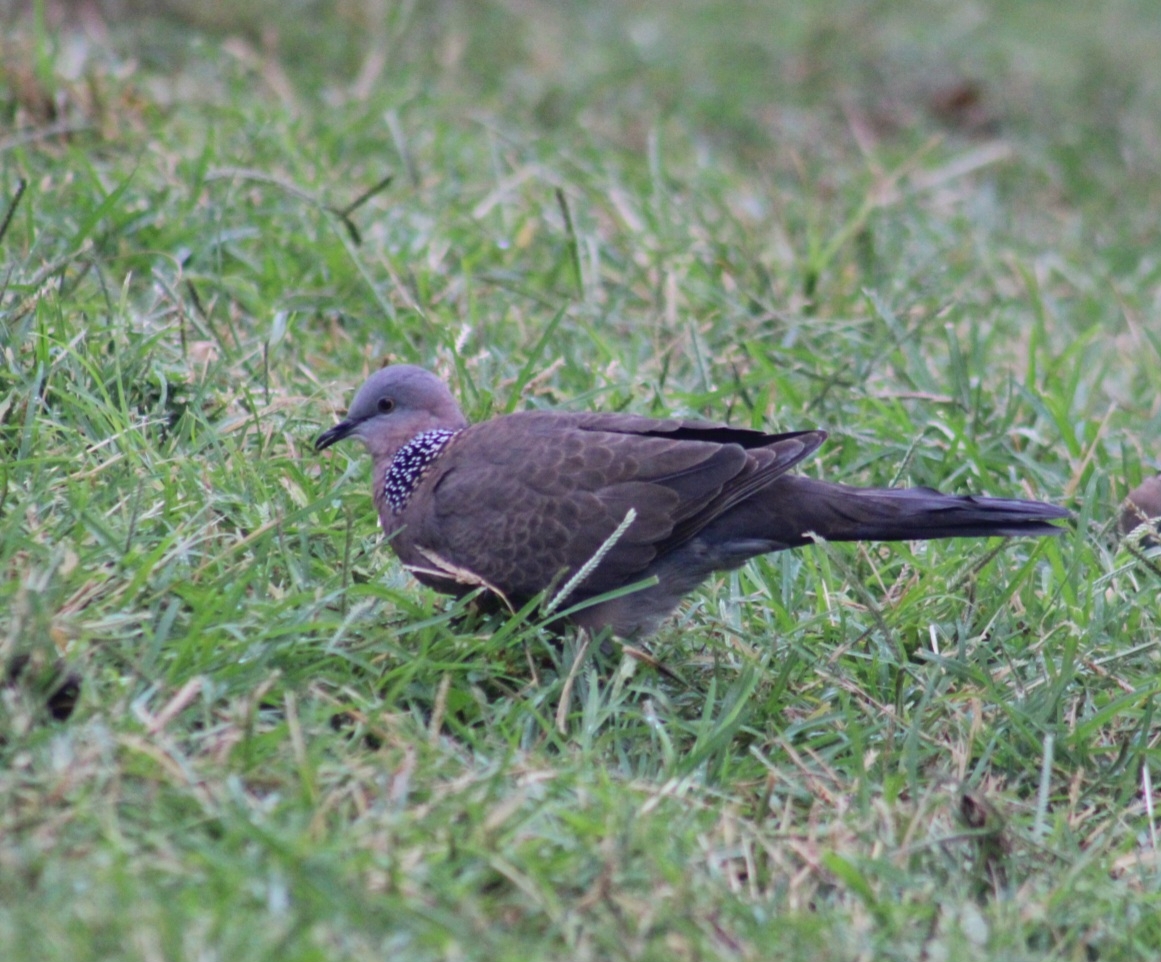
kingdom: Animalia
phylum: Chordata
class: Aves
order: Columbiformes
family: Columbidae
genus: Spilopelia
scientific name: Spilopelia chinensis
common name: Spotted dove
